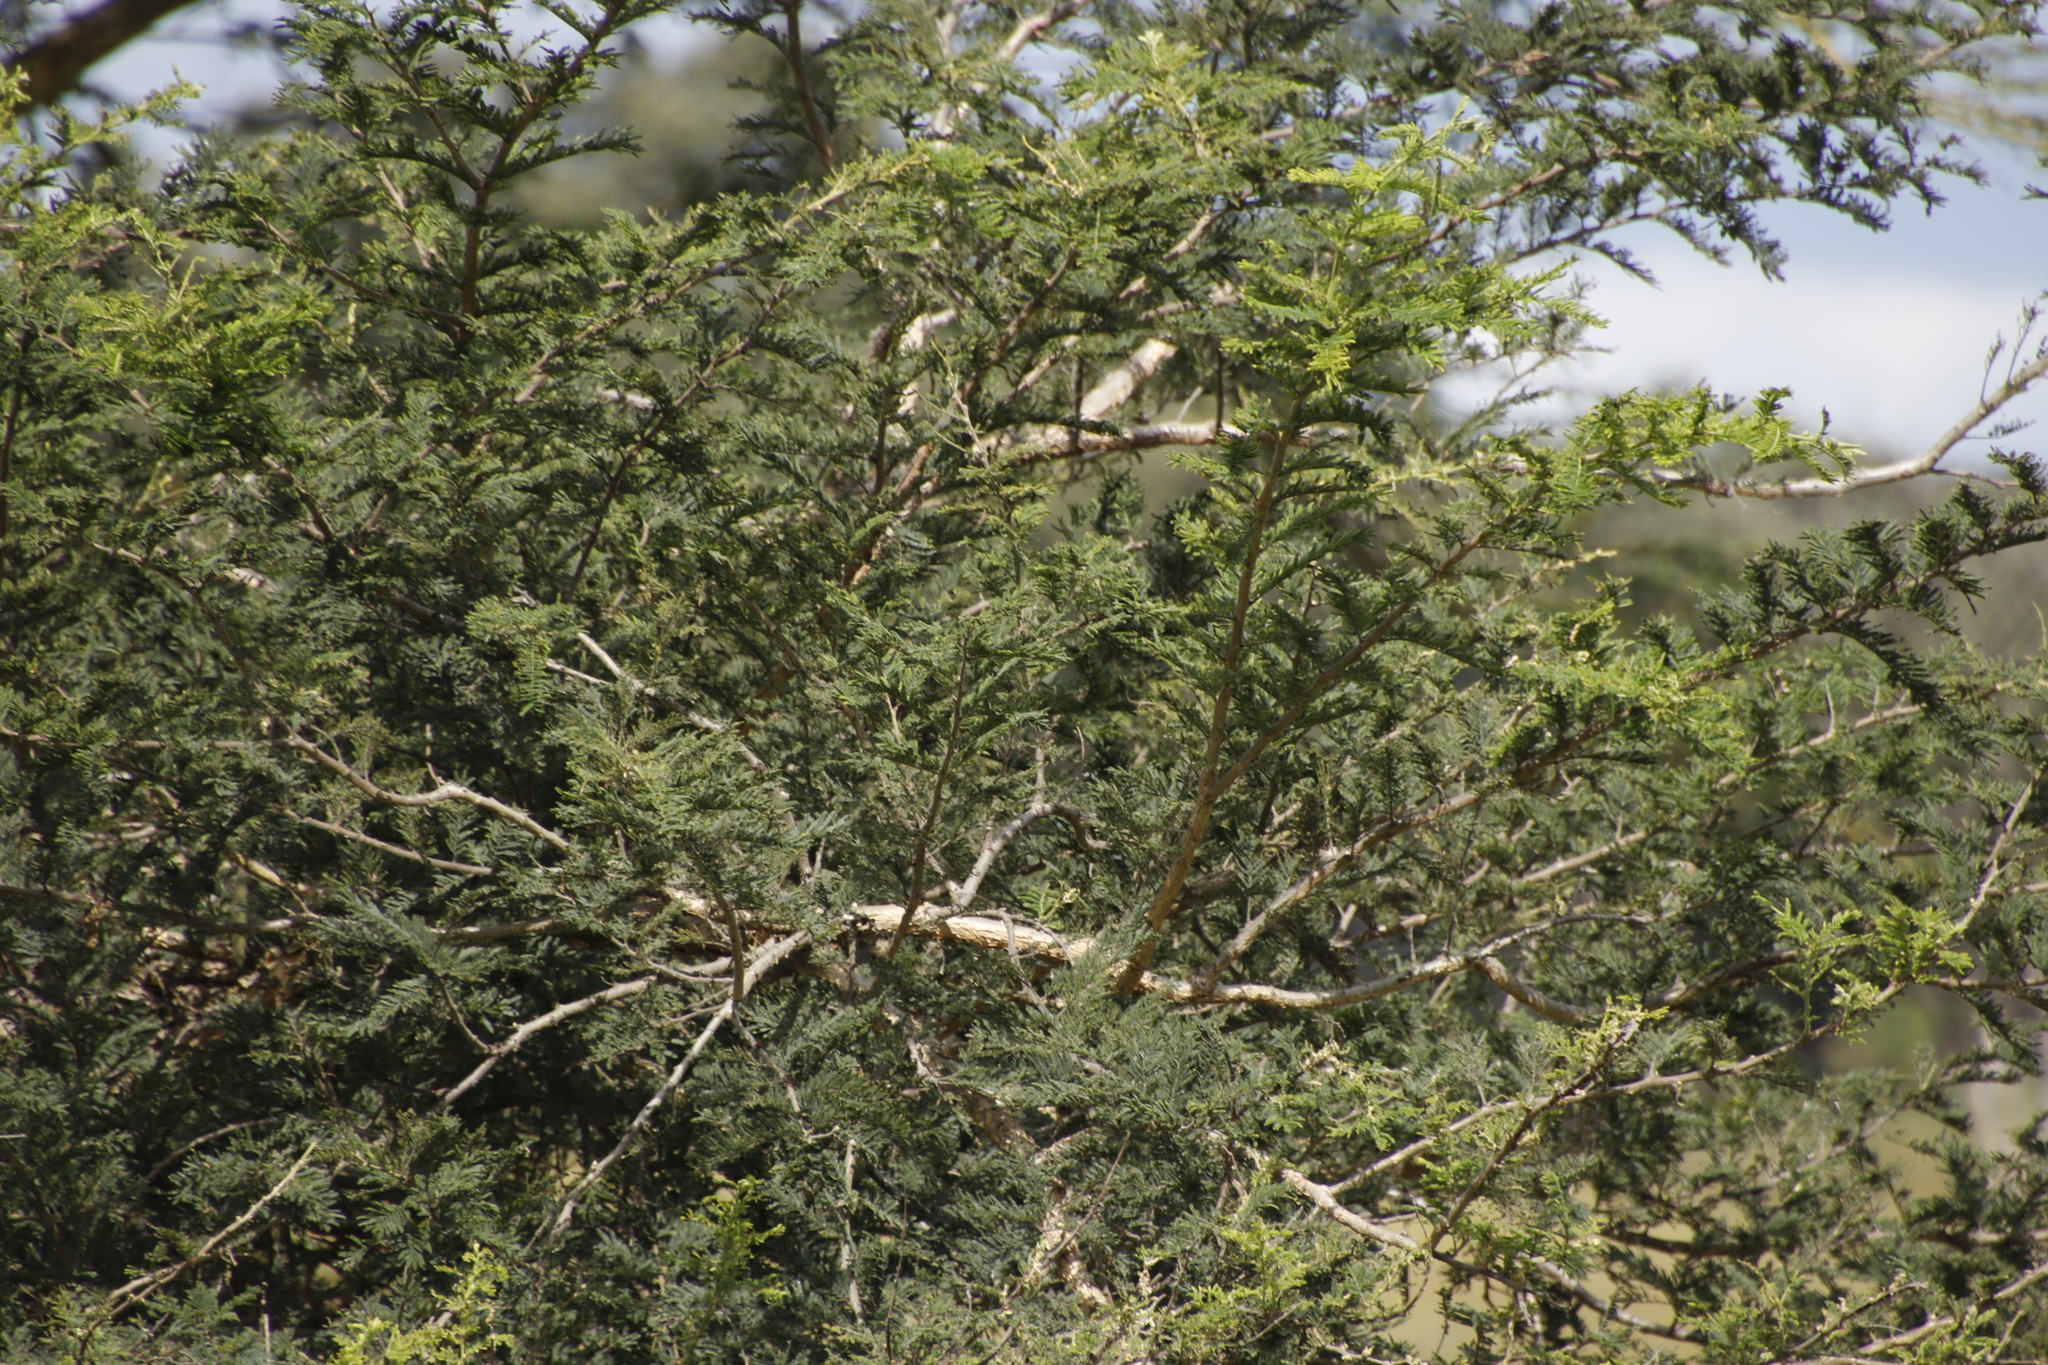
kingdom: Plantae
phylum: Tracheophyta
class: Magnoliopsida
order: Fabales
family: Fabaceae
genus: Vachellia
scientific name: Vachellia sieberiana
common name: Flat-topped thorn
